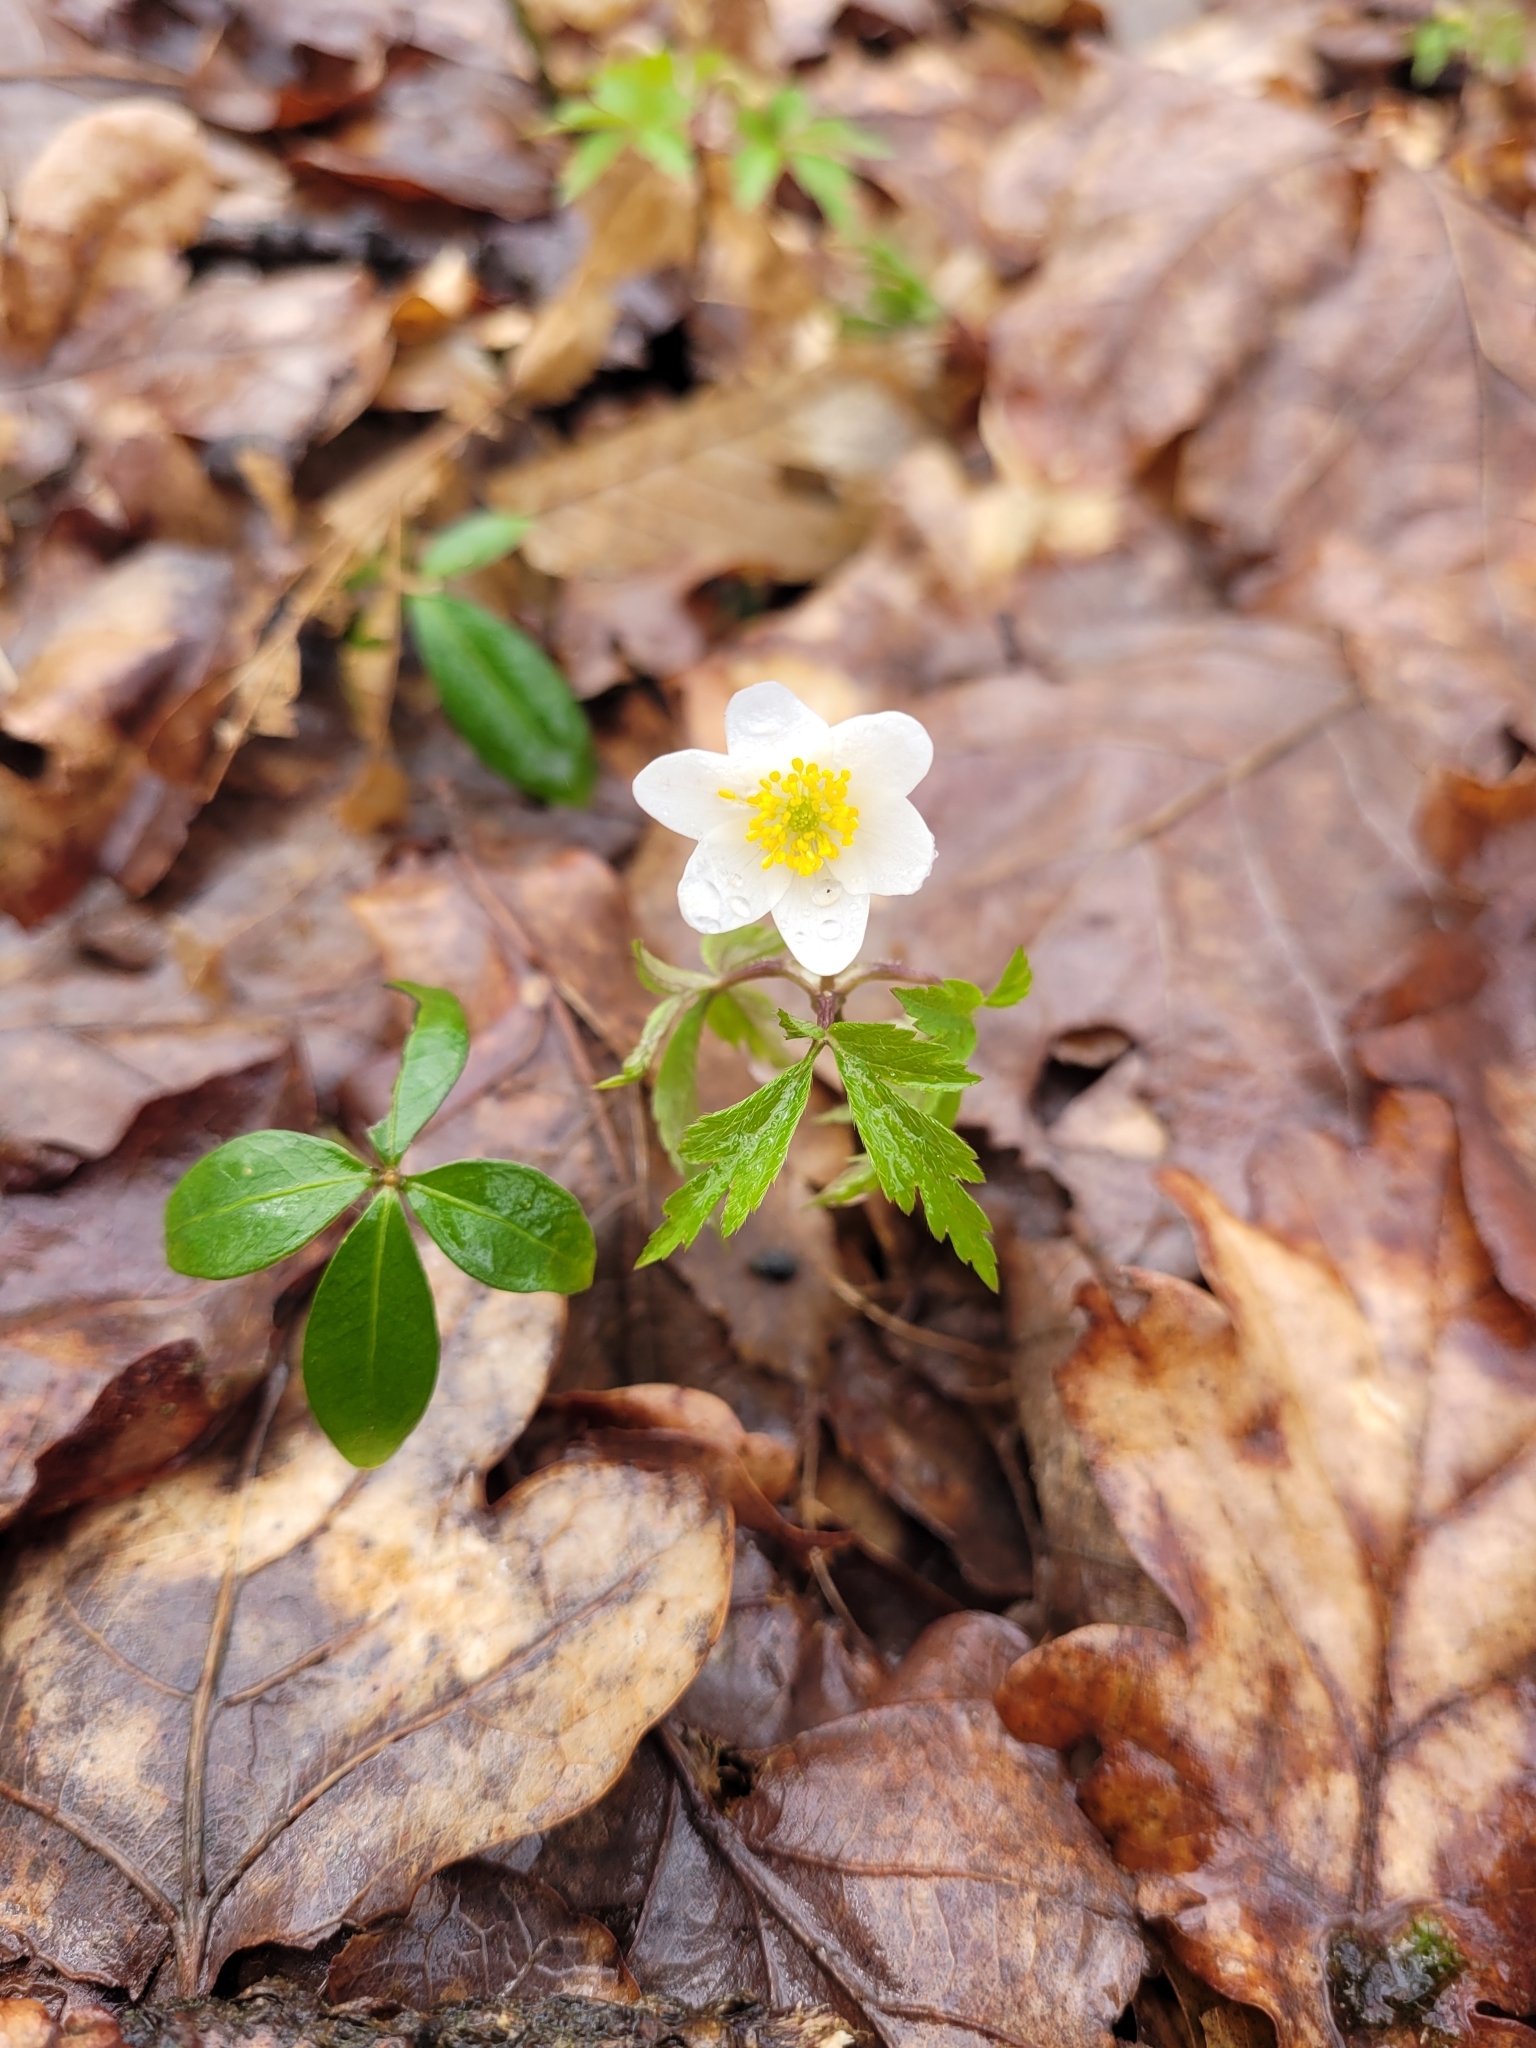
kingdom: Plantae
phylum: Tracheophyta
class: Magnoliopsida
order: Ranunculales
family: Ranunculaceae
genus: Anemone
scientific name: Anemone nemorosa
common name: Wood anemone
